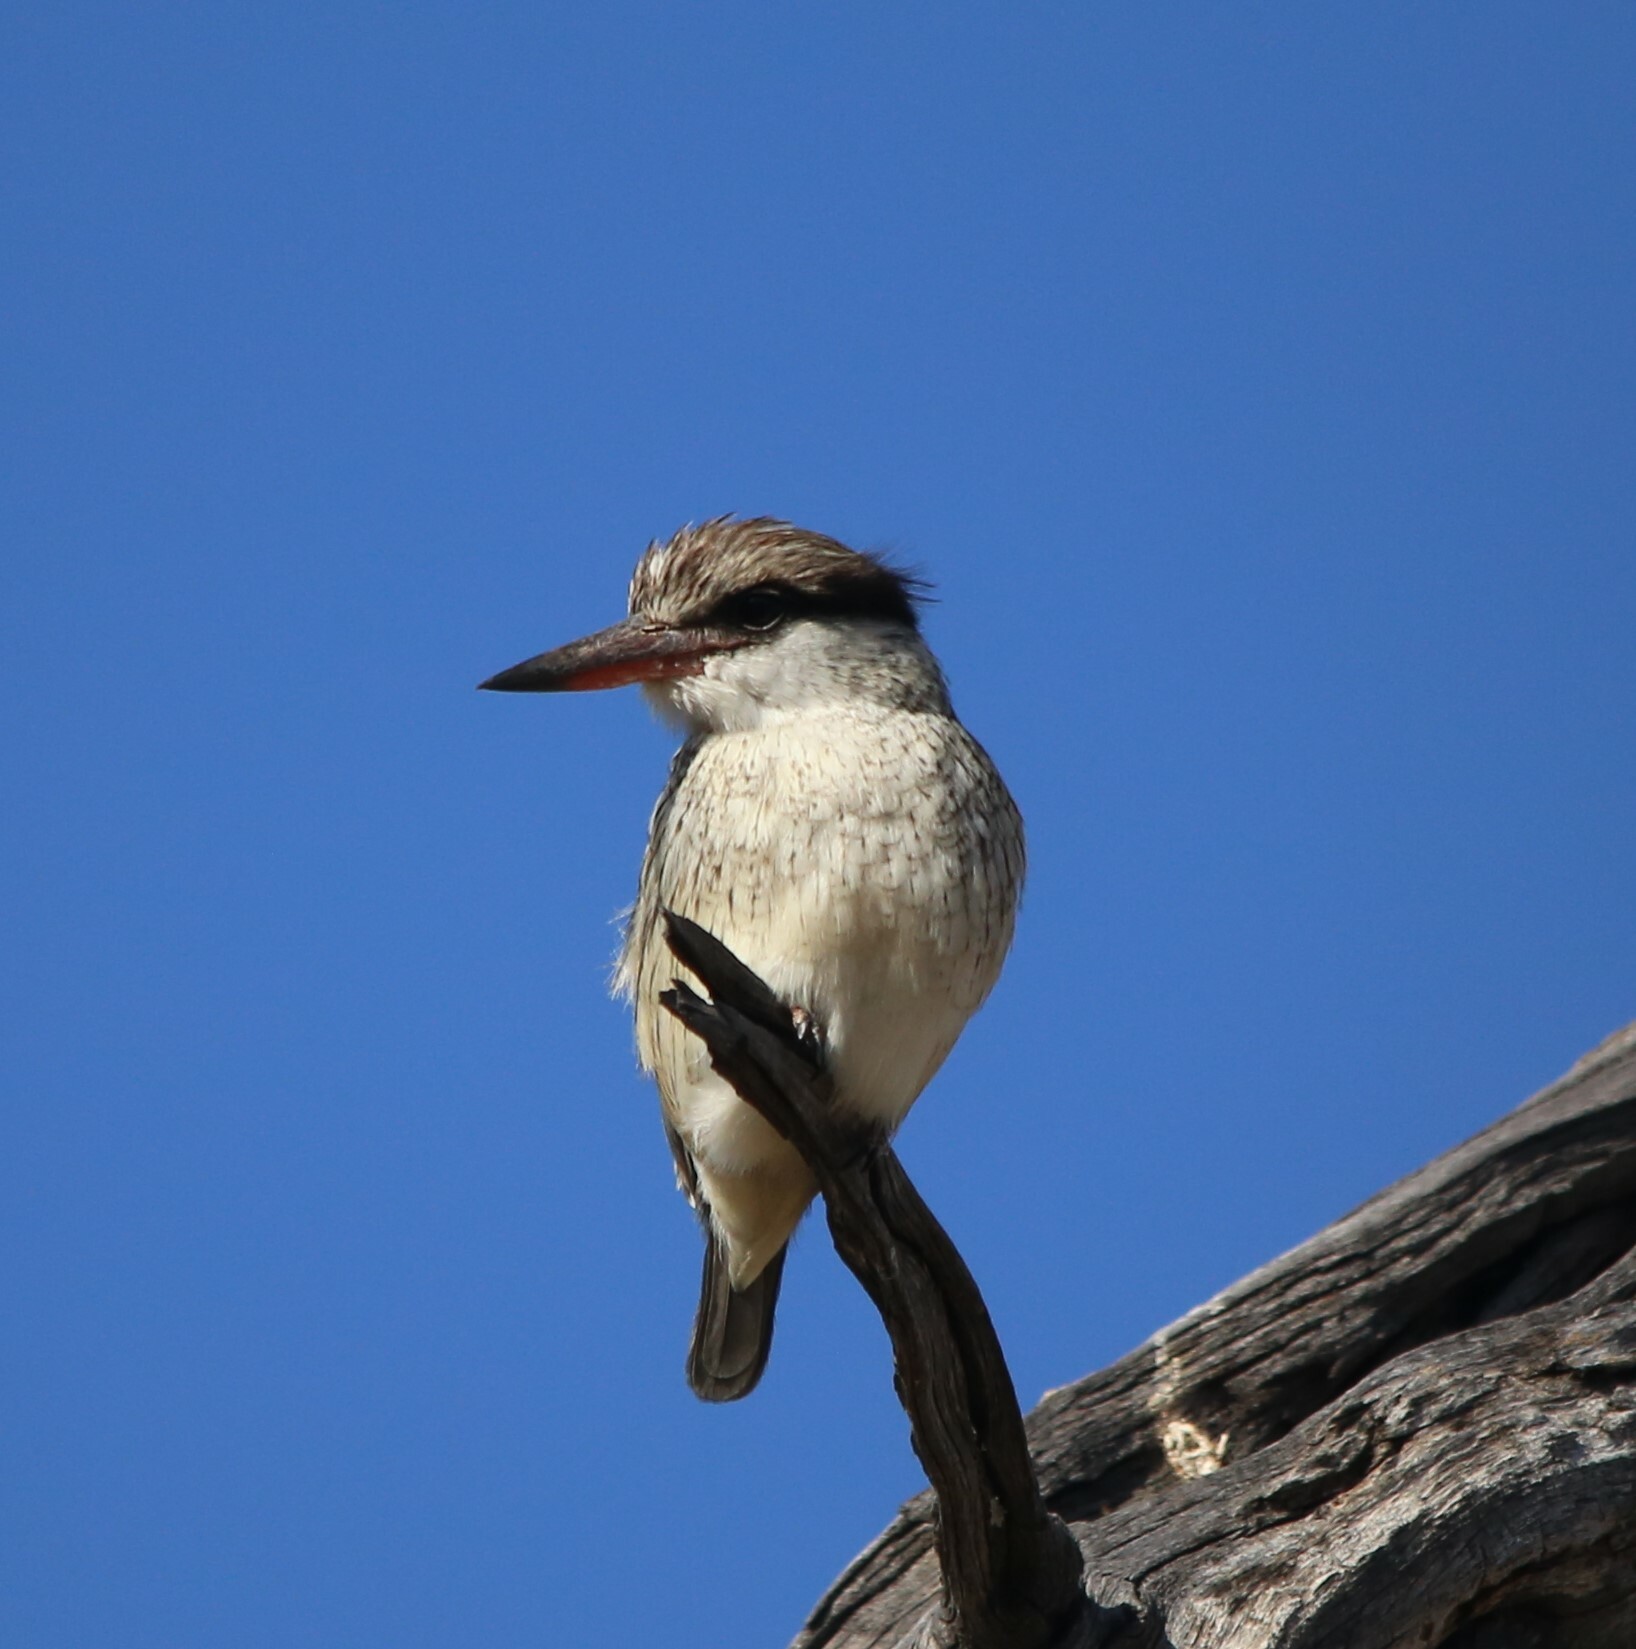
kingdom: Animalia
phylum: Chordata
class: Aves
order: Coraciiformes
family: Alcedinidae
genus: Halcyon
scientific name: Halcyon chelicuti
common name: Striped kingfisher
